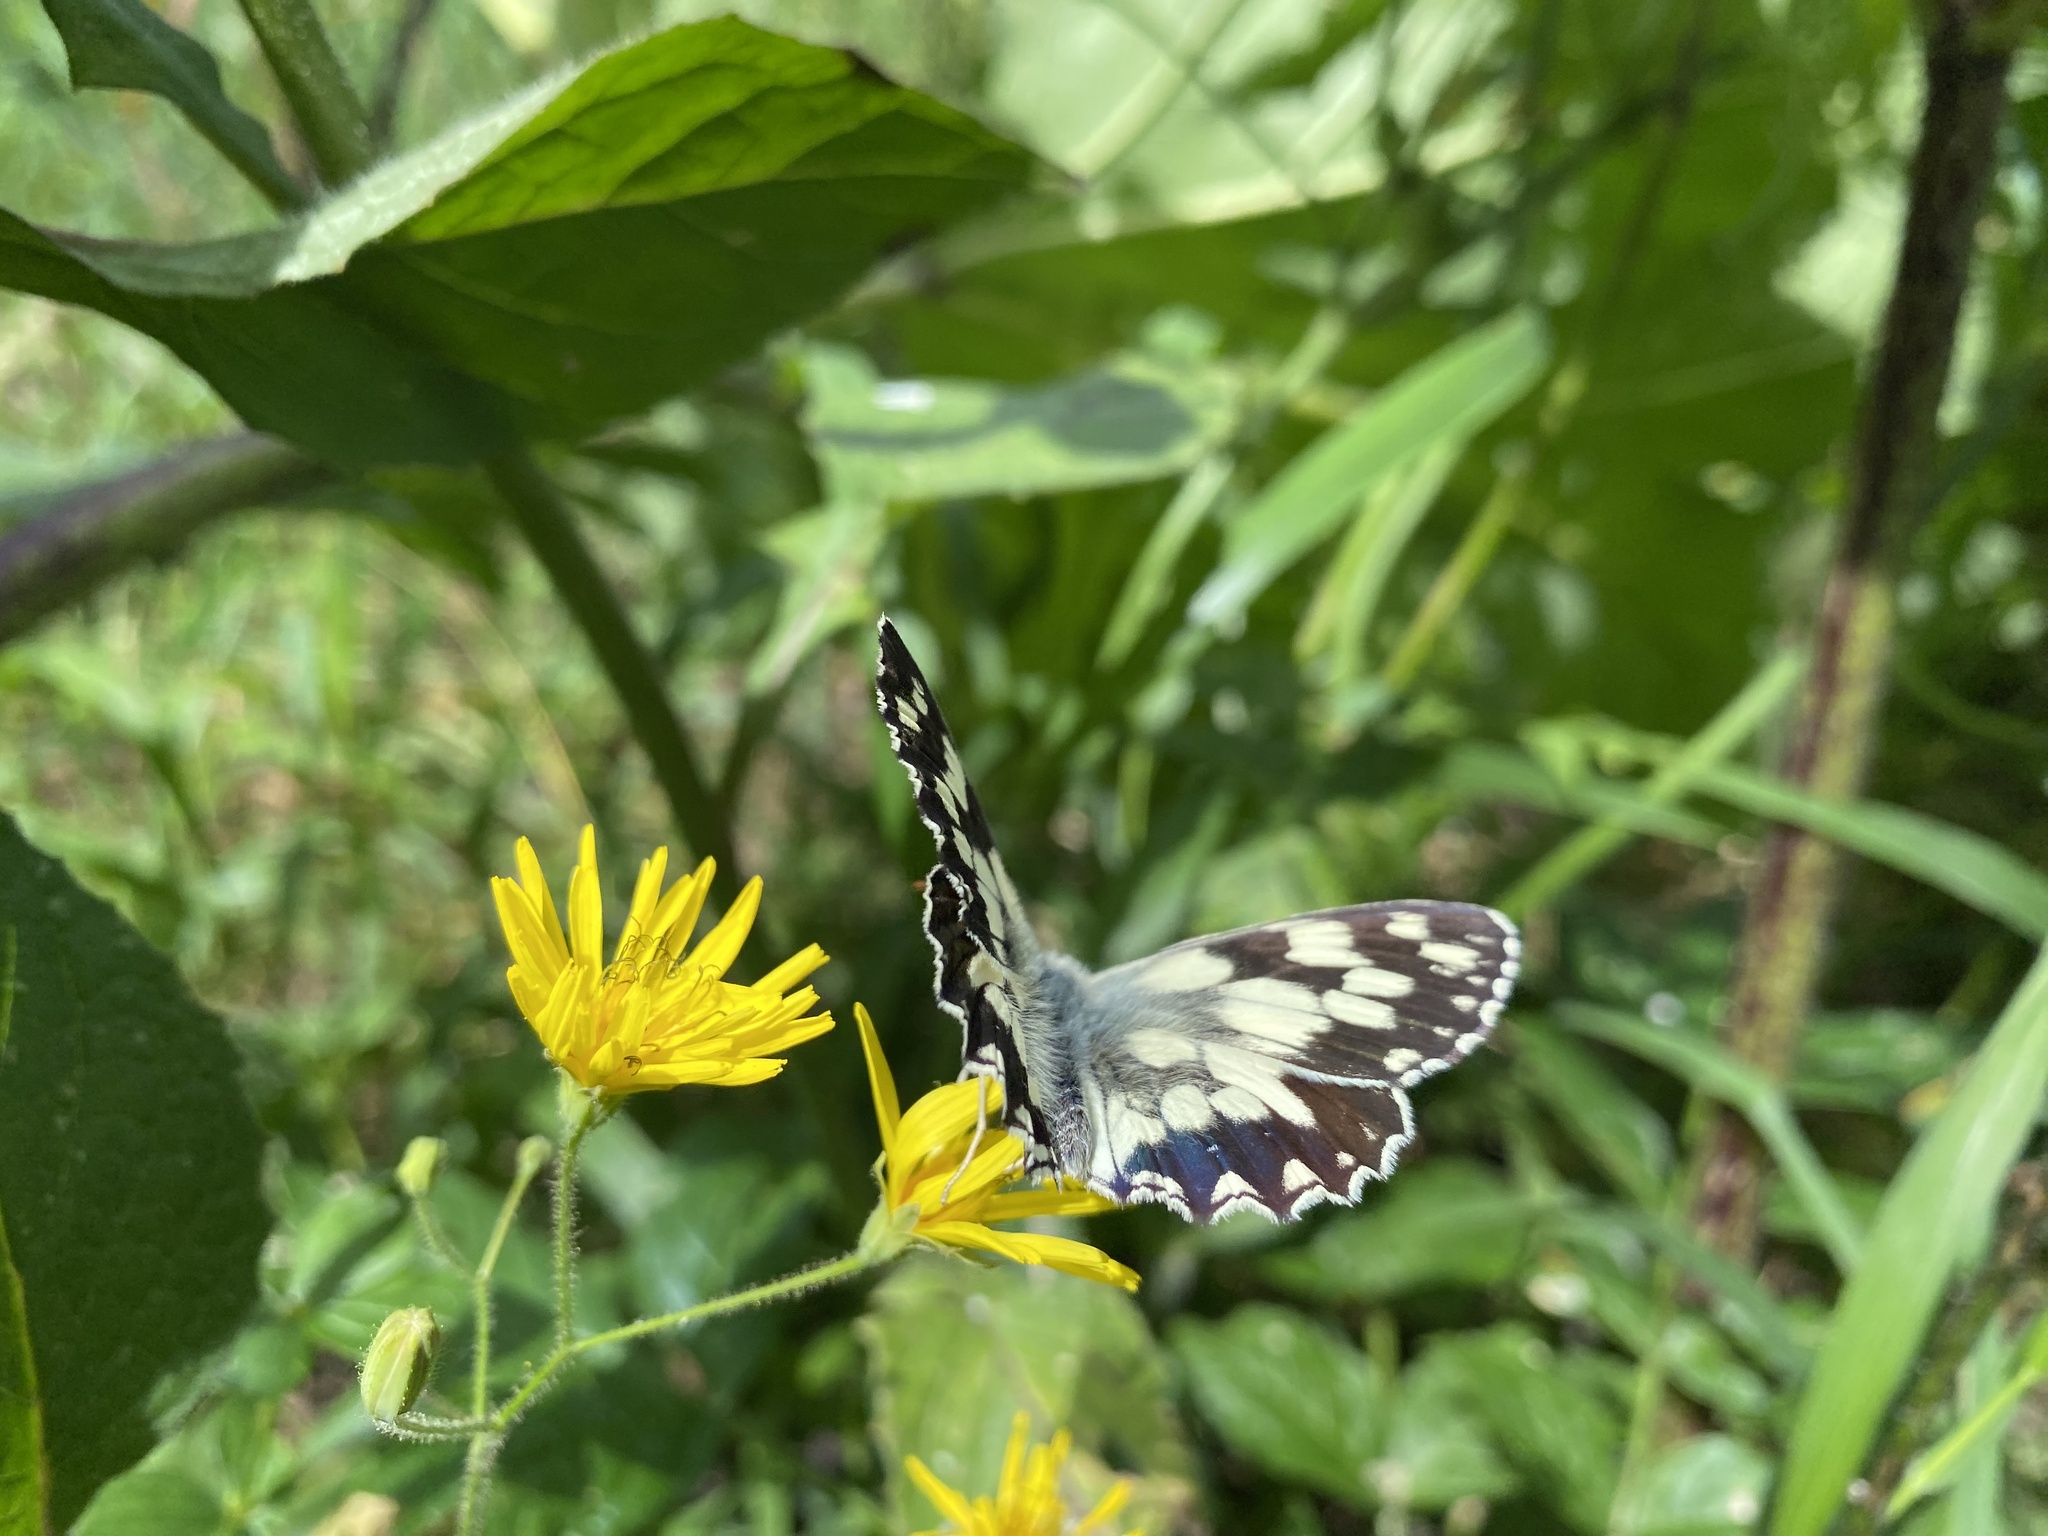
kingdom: Animalia
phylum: Arthropoda
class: Insecta
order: Lepidoptera
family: Nymphalidae
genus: Melanargia
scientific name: Melanargia galathea
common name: Marbled white
